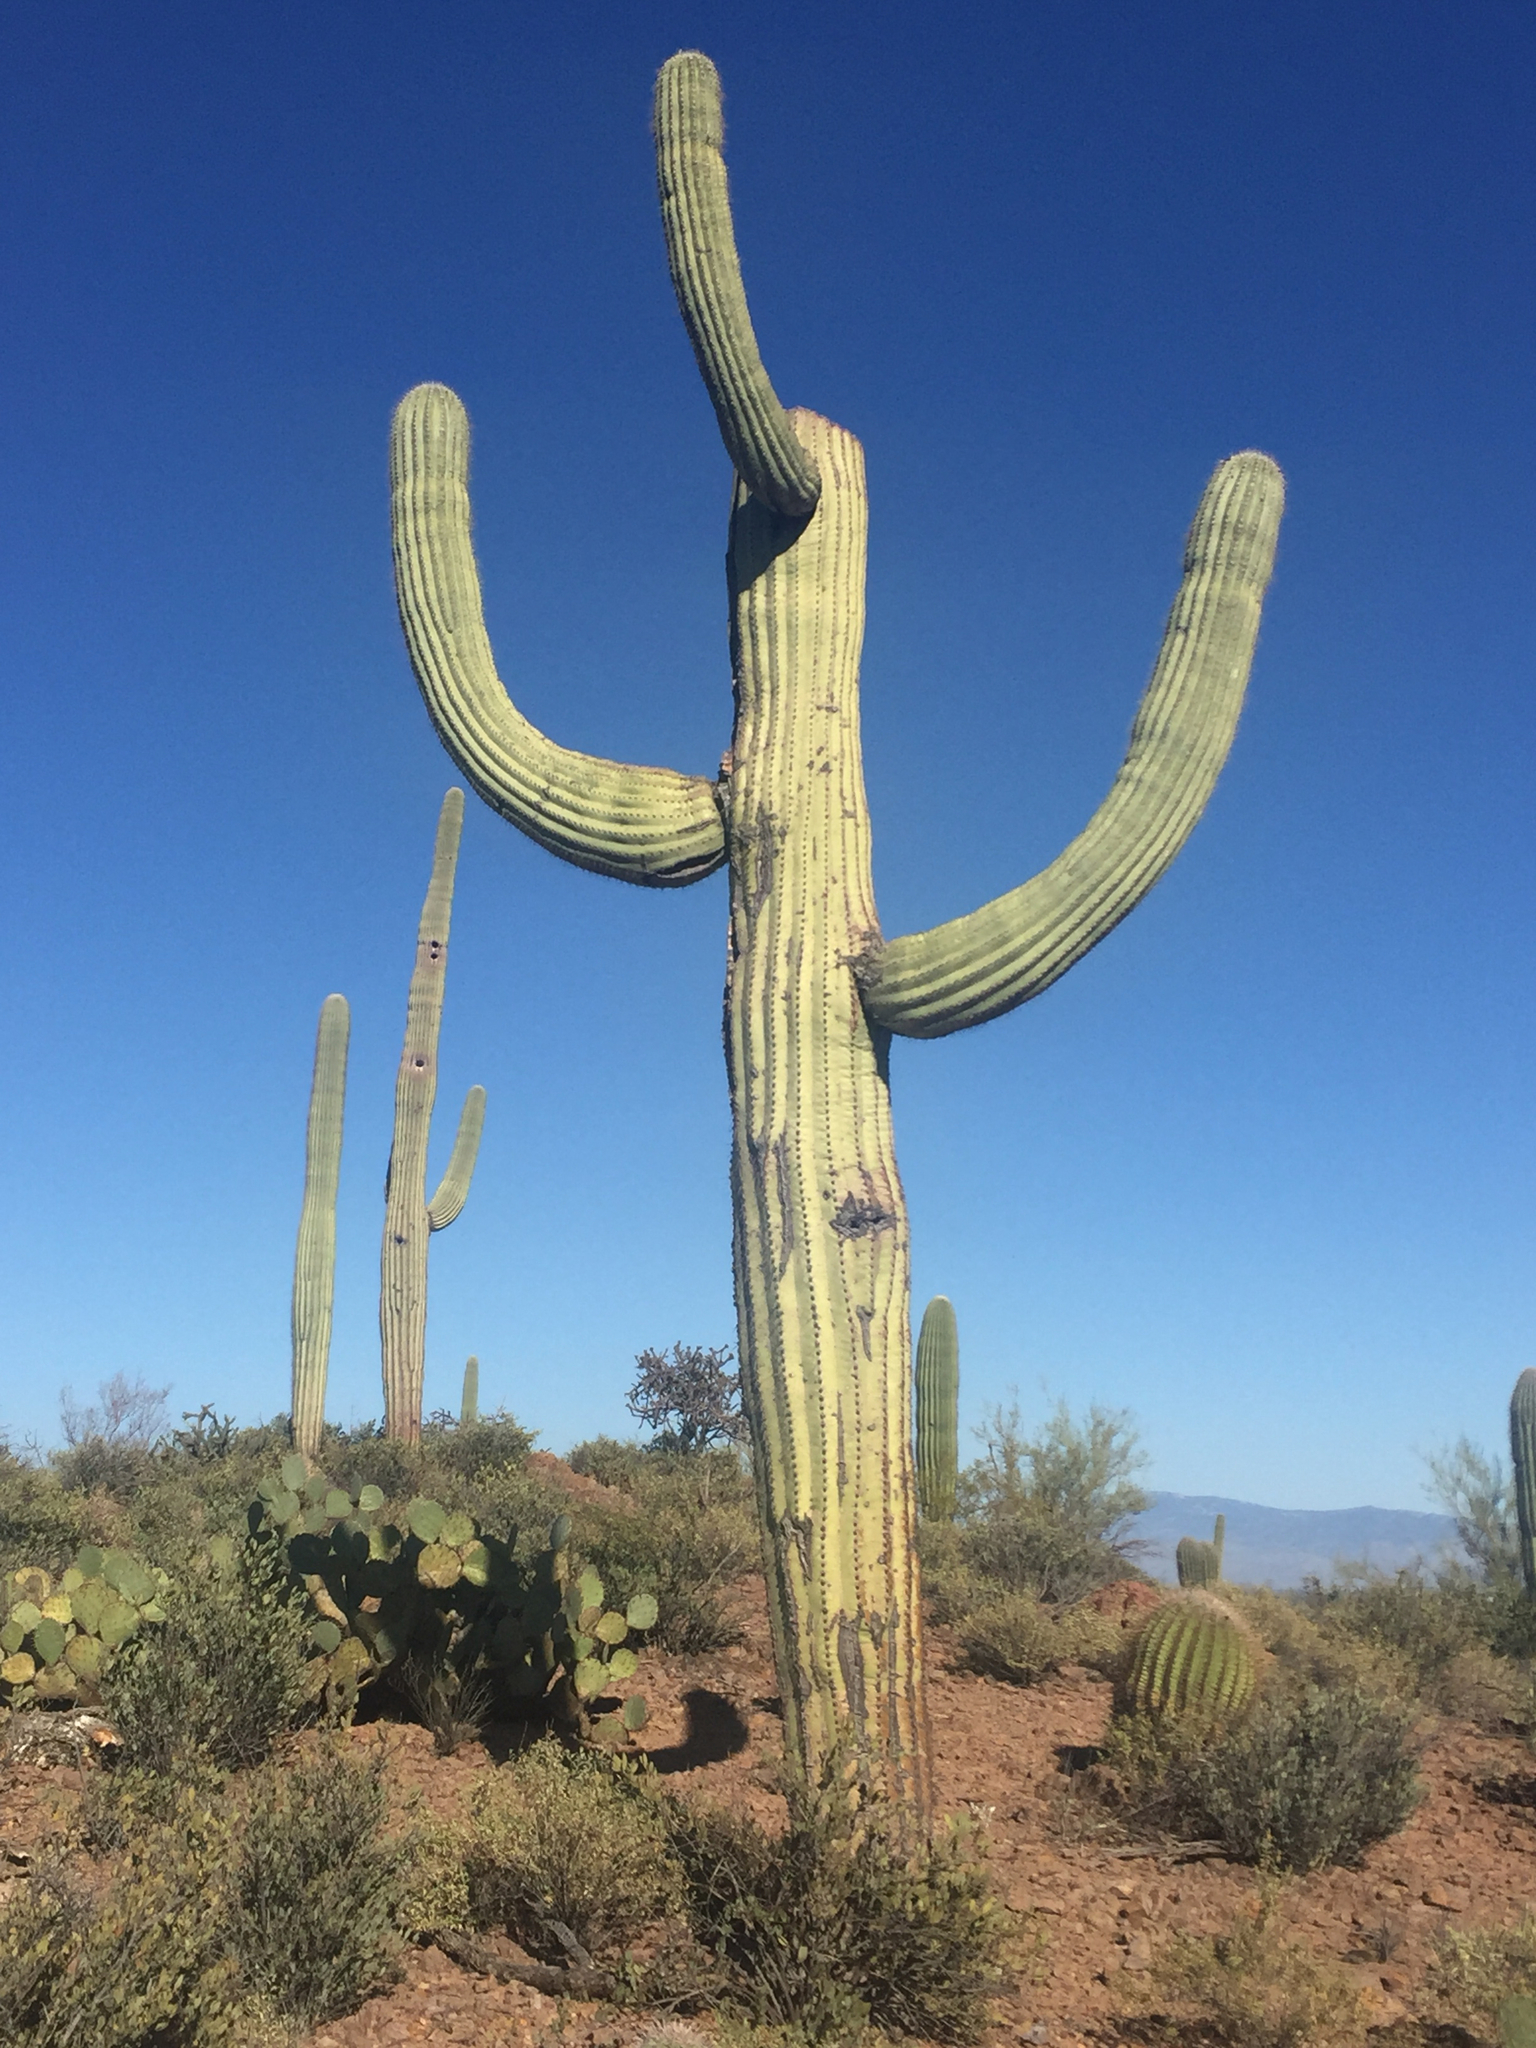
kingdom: Plantae
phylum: Tracheophyta
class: Magnoliopsida
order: Caryophyllales
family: Cactaceae
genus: Carnegiea
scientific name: Carnegiea gigantea
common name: Saguaro
